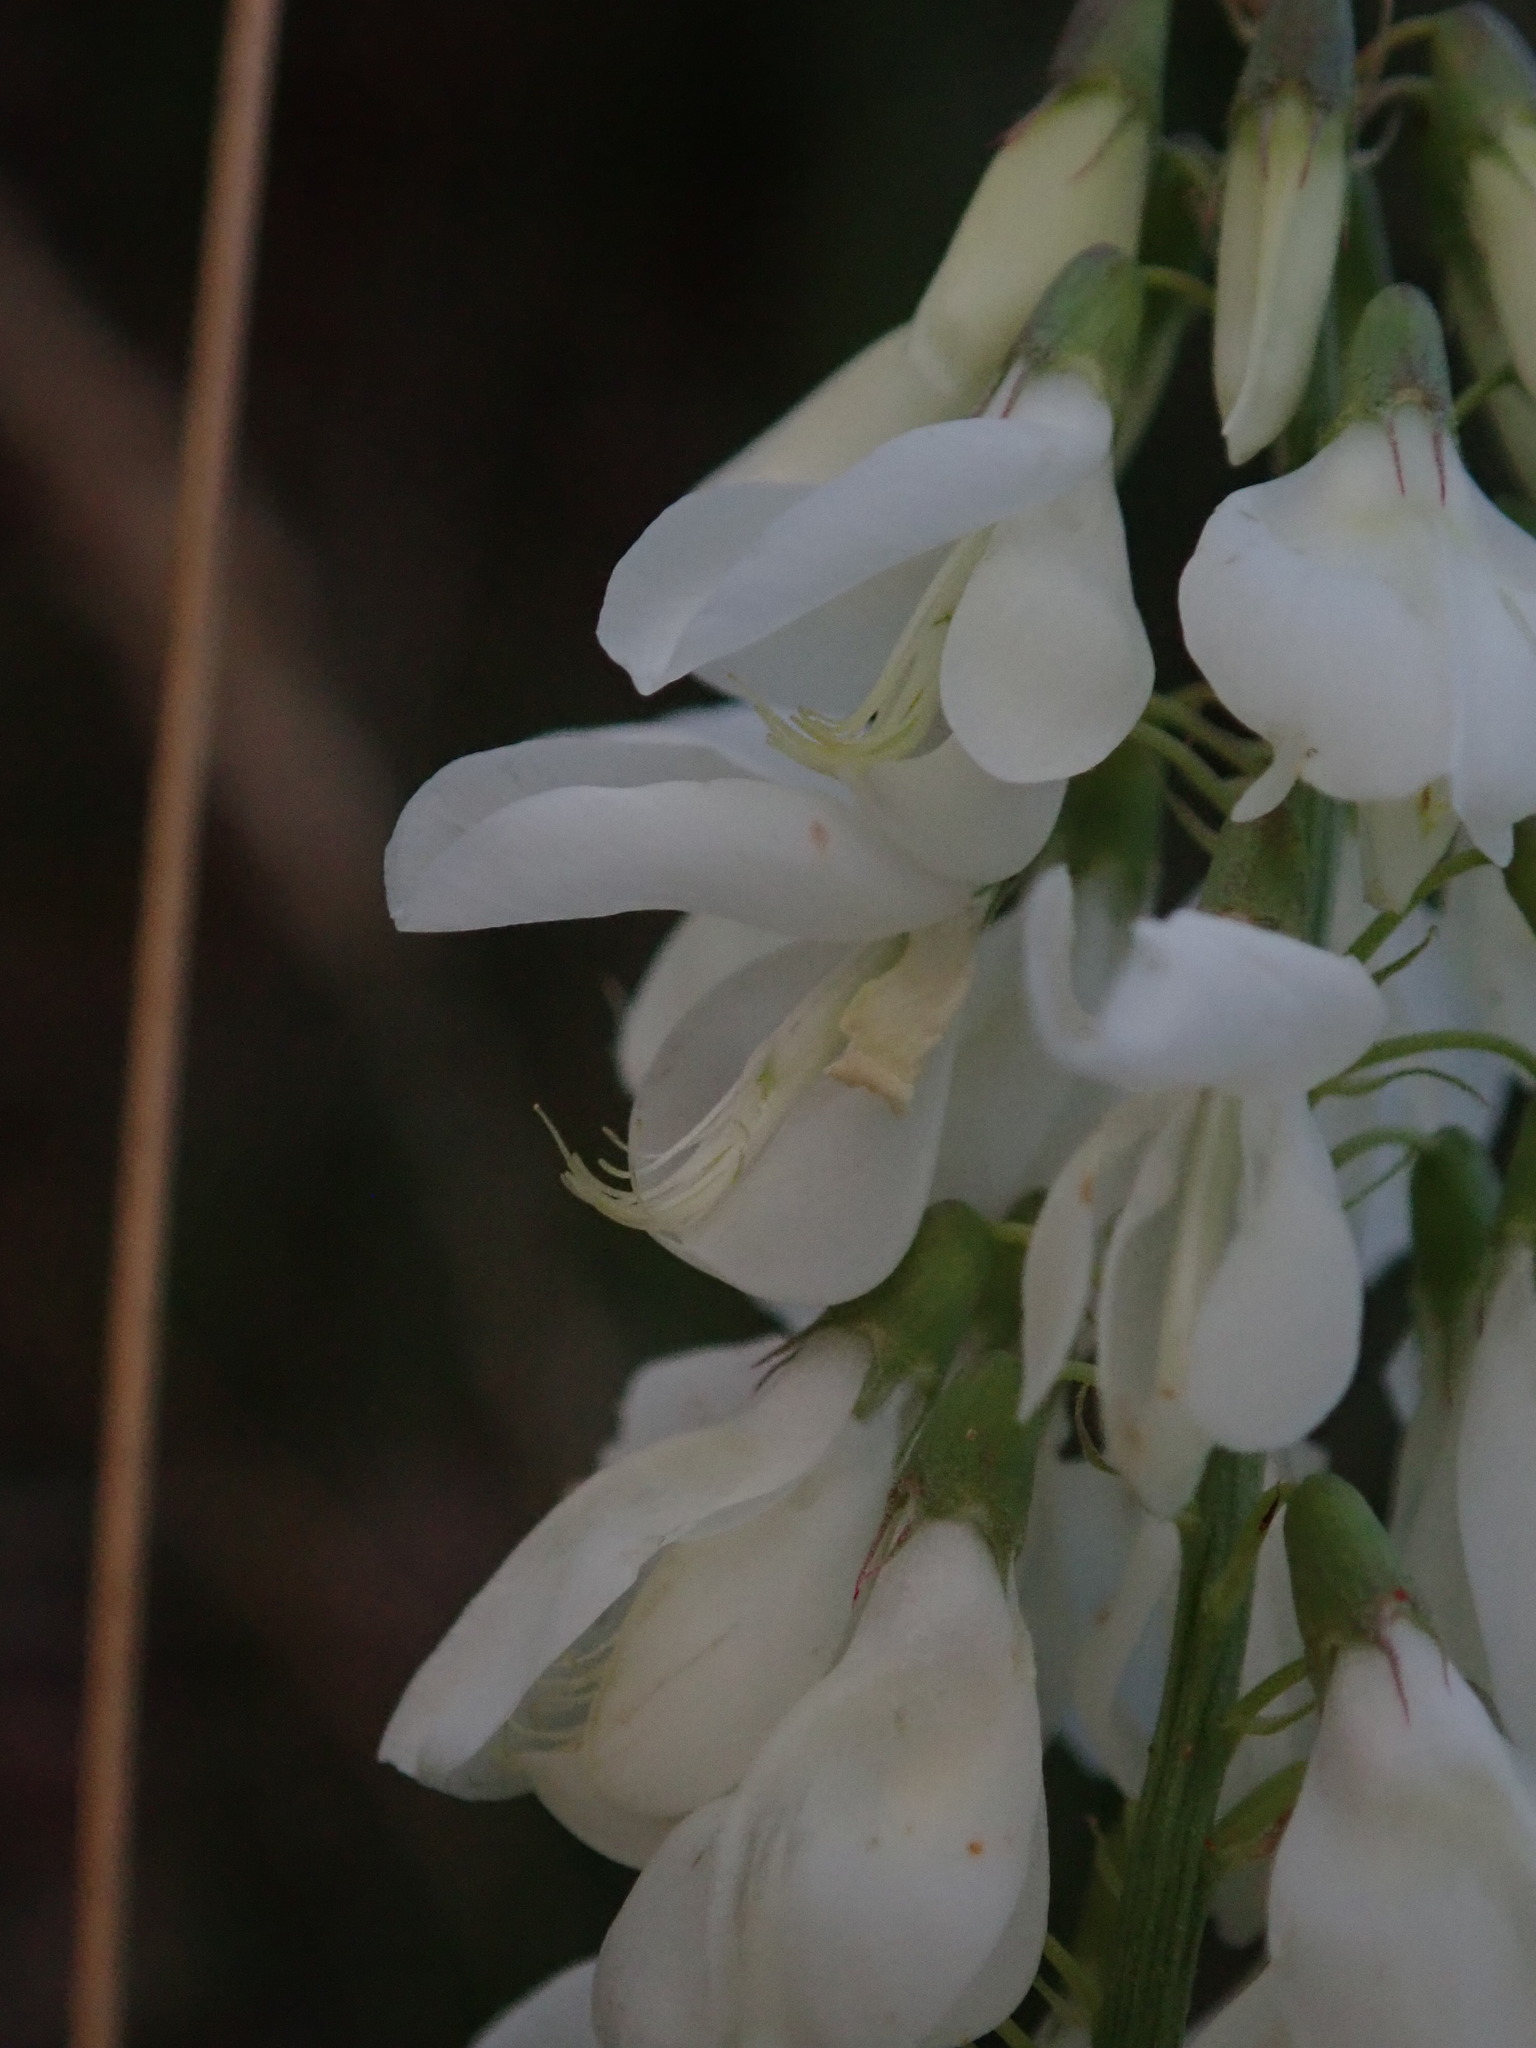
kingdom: Plantae
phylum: Tracheophyta
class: Magnoliopsida
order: Fabales
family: Fabaceae
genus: Galega
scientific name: Galega officinalis
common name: Goat's-rue
